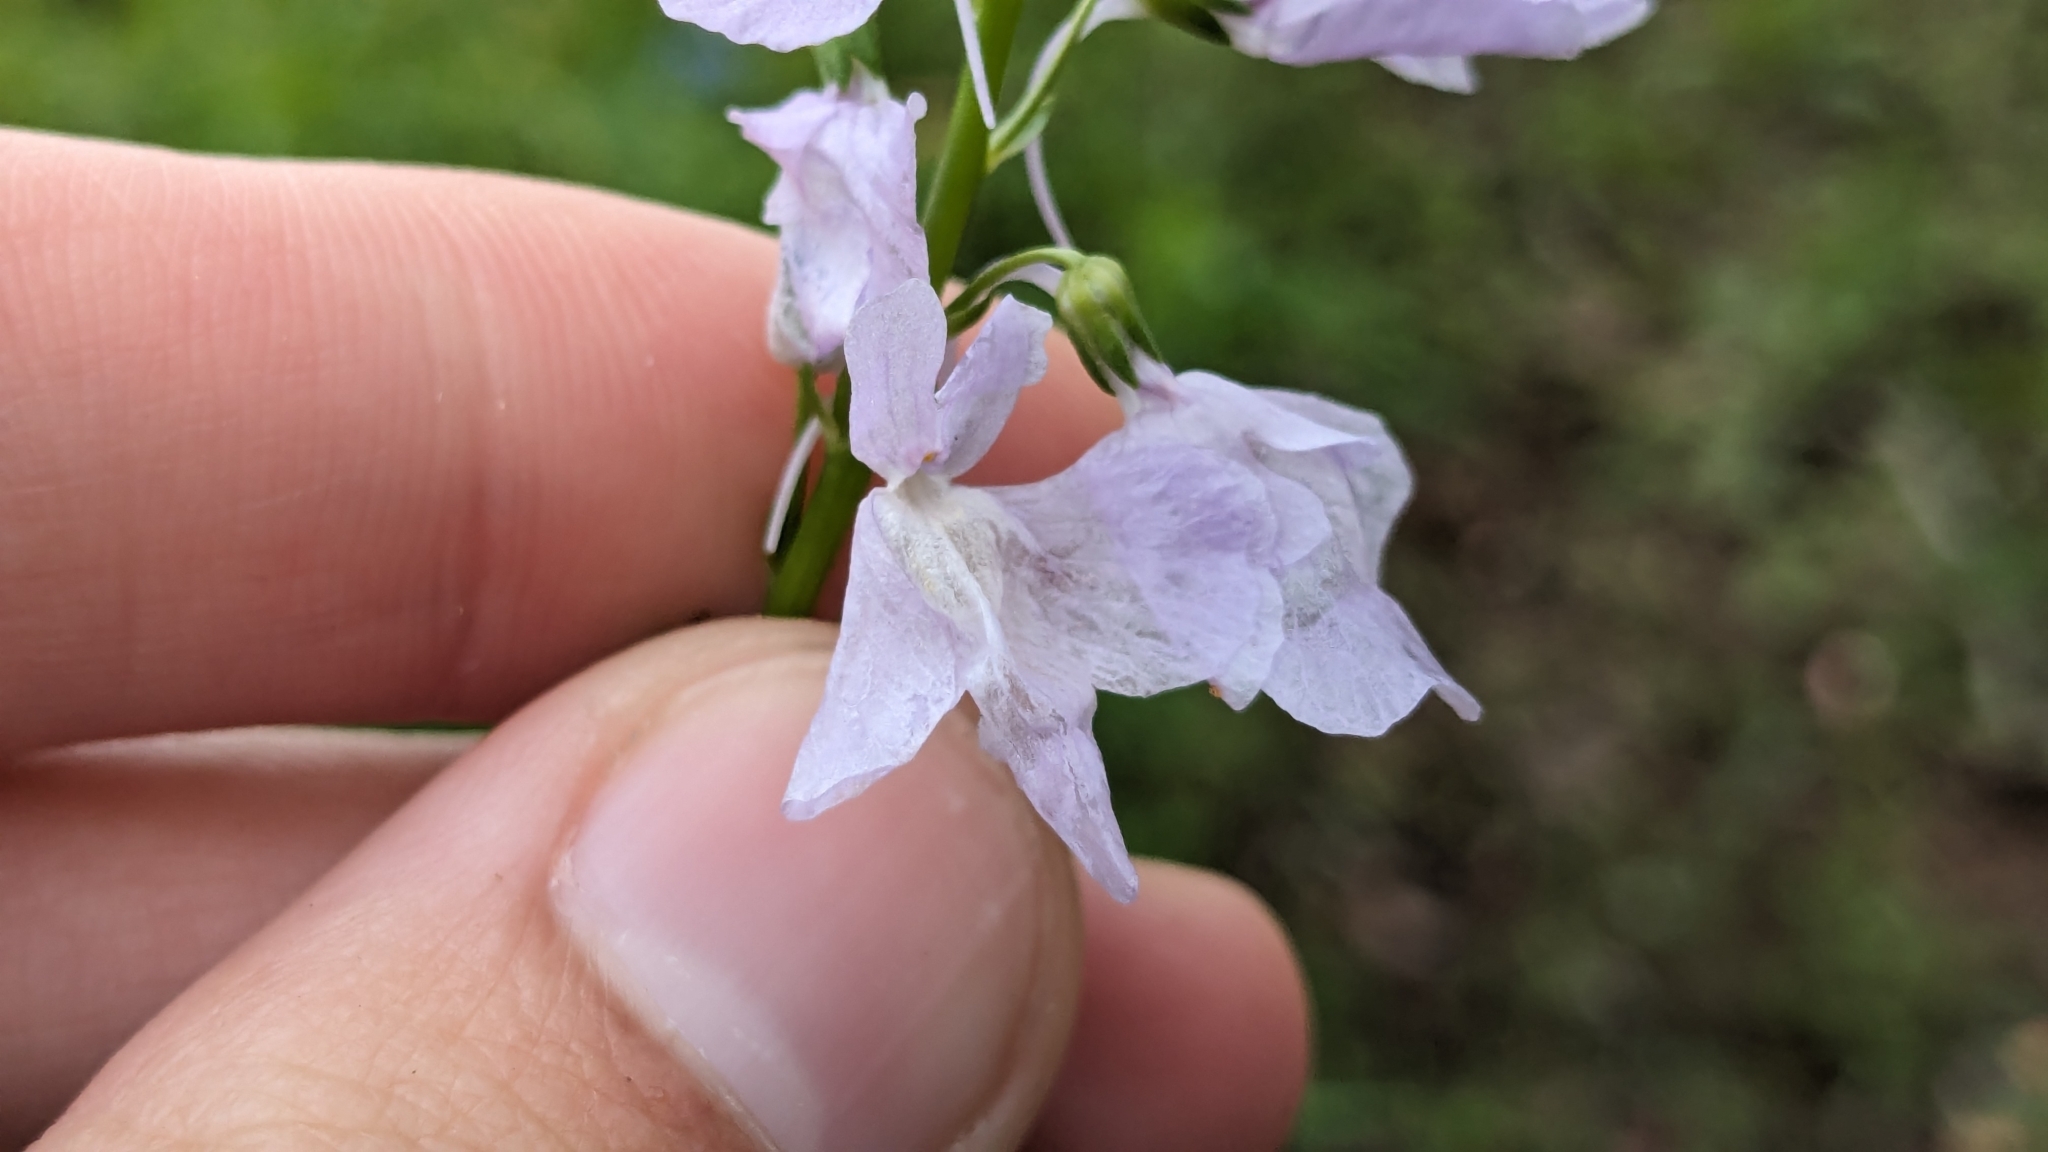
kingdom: Plantae
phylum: Tracheophyta
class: Magnoliopsida
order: Lamiales
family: Plantaginaceae
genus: Nuttallanthus
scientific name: Nuttallanthus texanus
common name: Texas toadflax
